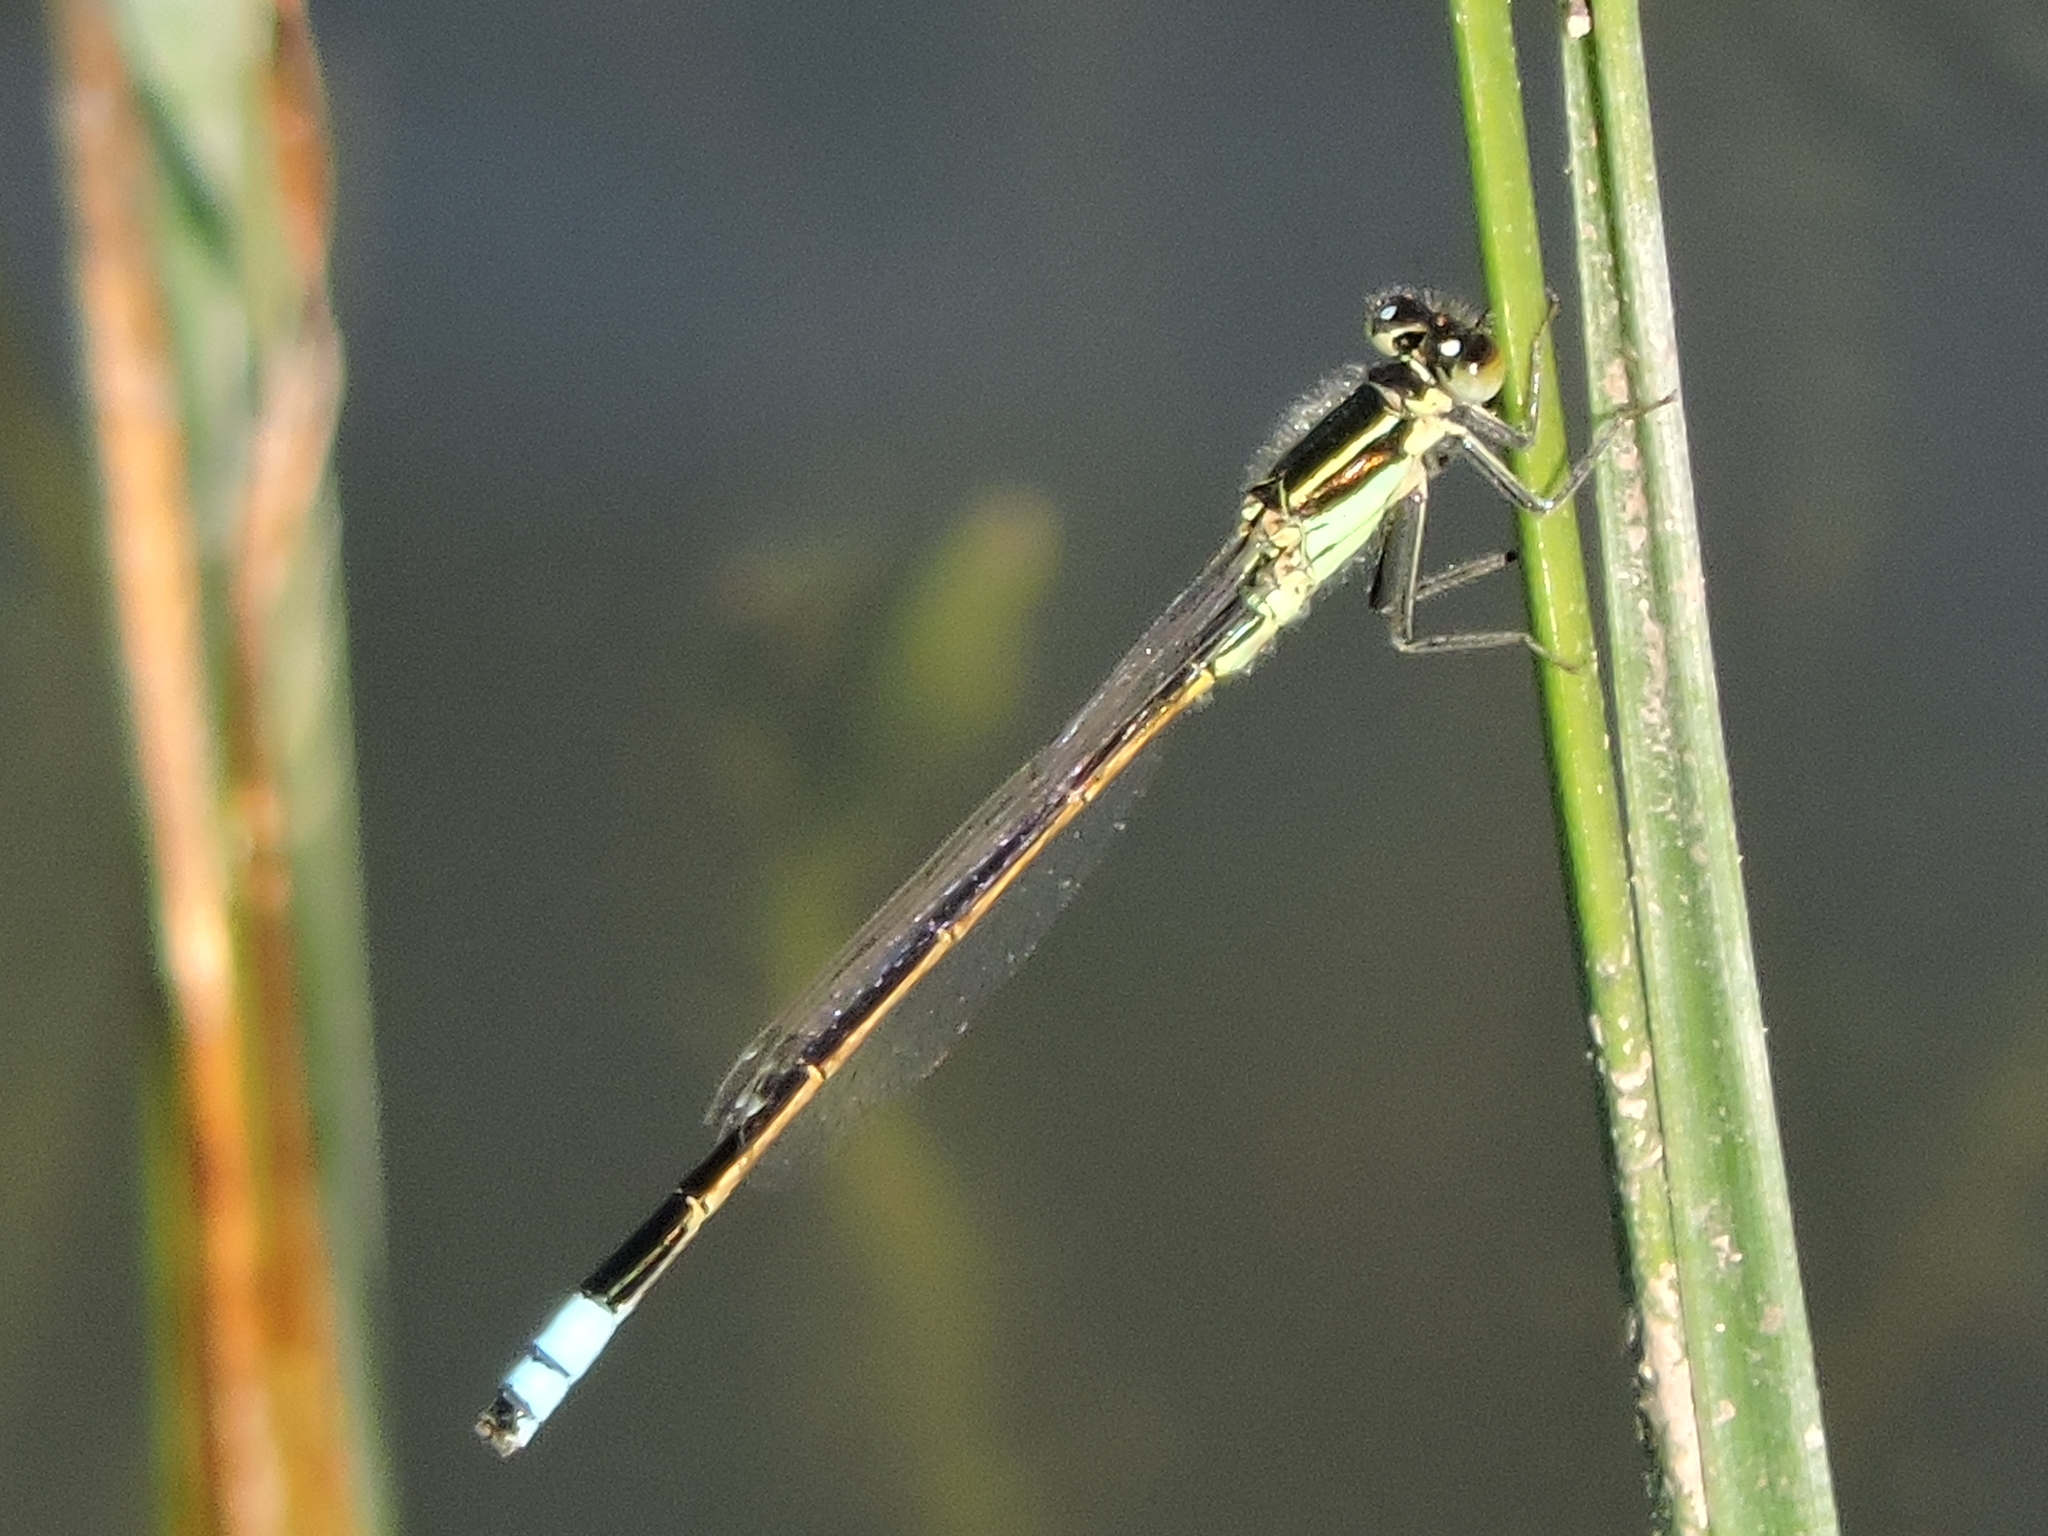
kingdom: Animalia
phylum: Arthropoda
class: Insecta
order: Odonata
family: Coenagrionidae
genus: Ischnura
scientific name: Ischnura ramburii
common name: Rambur's forktail
